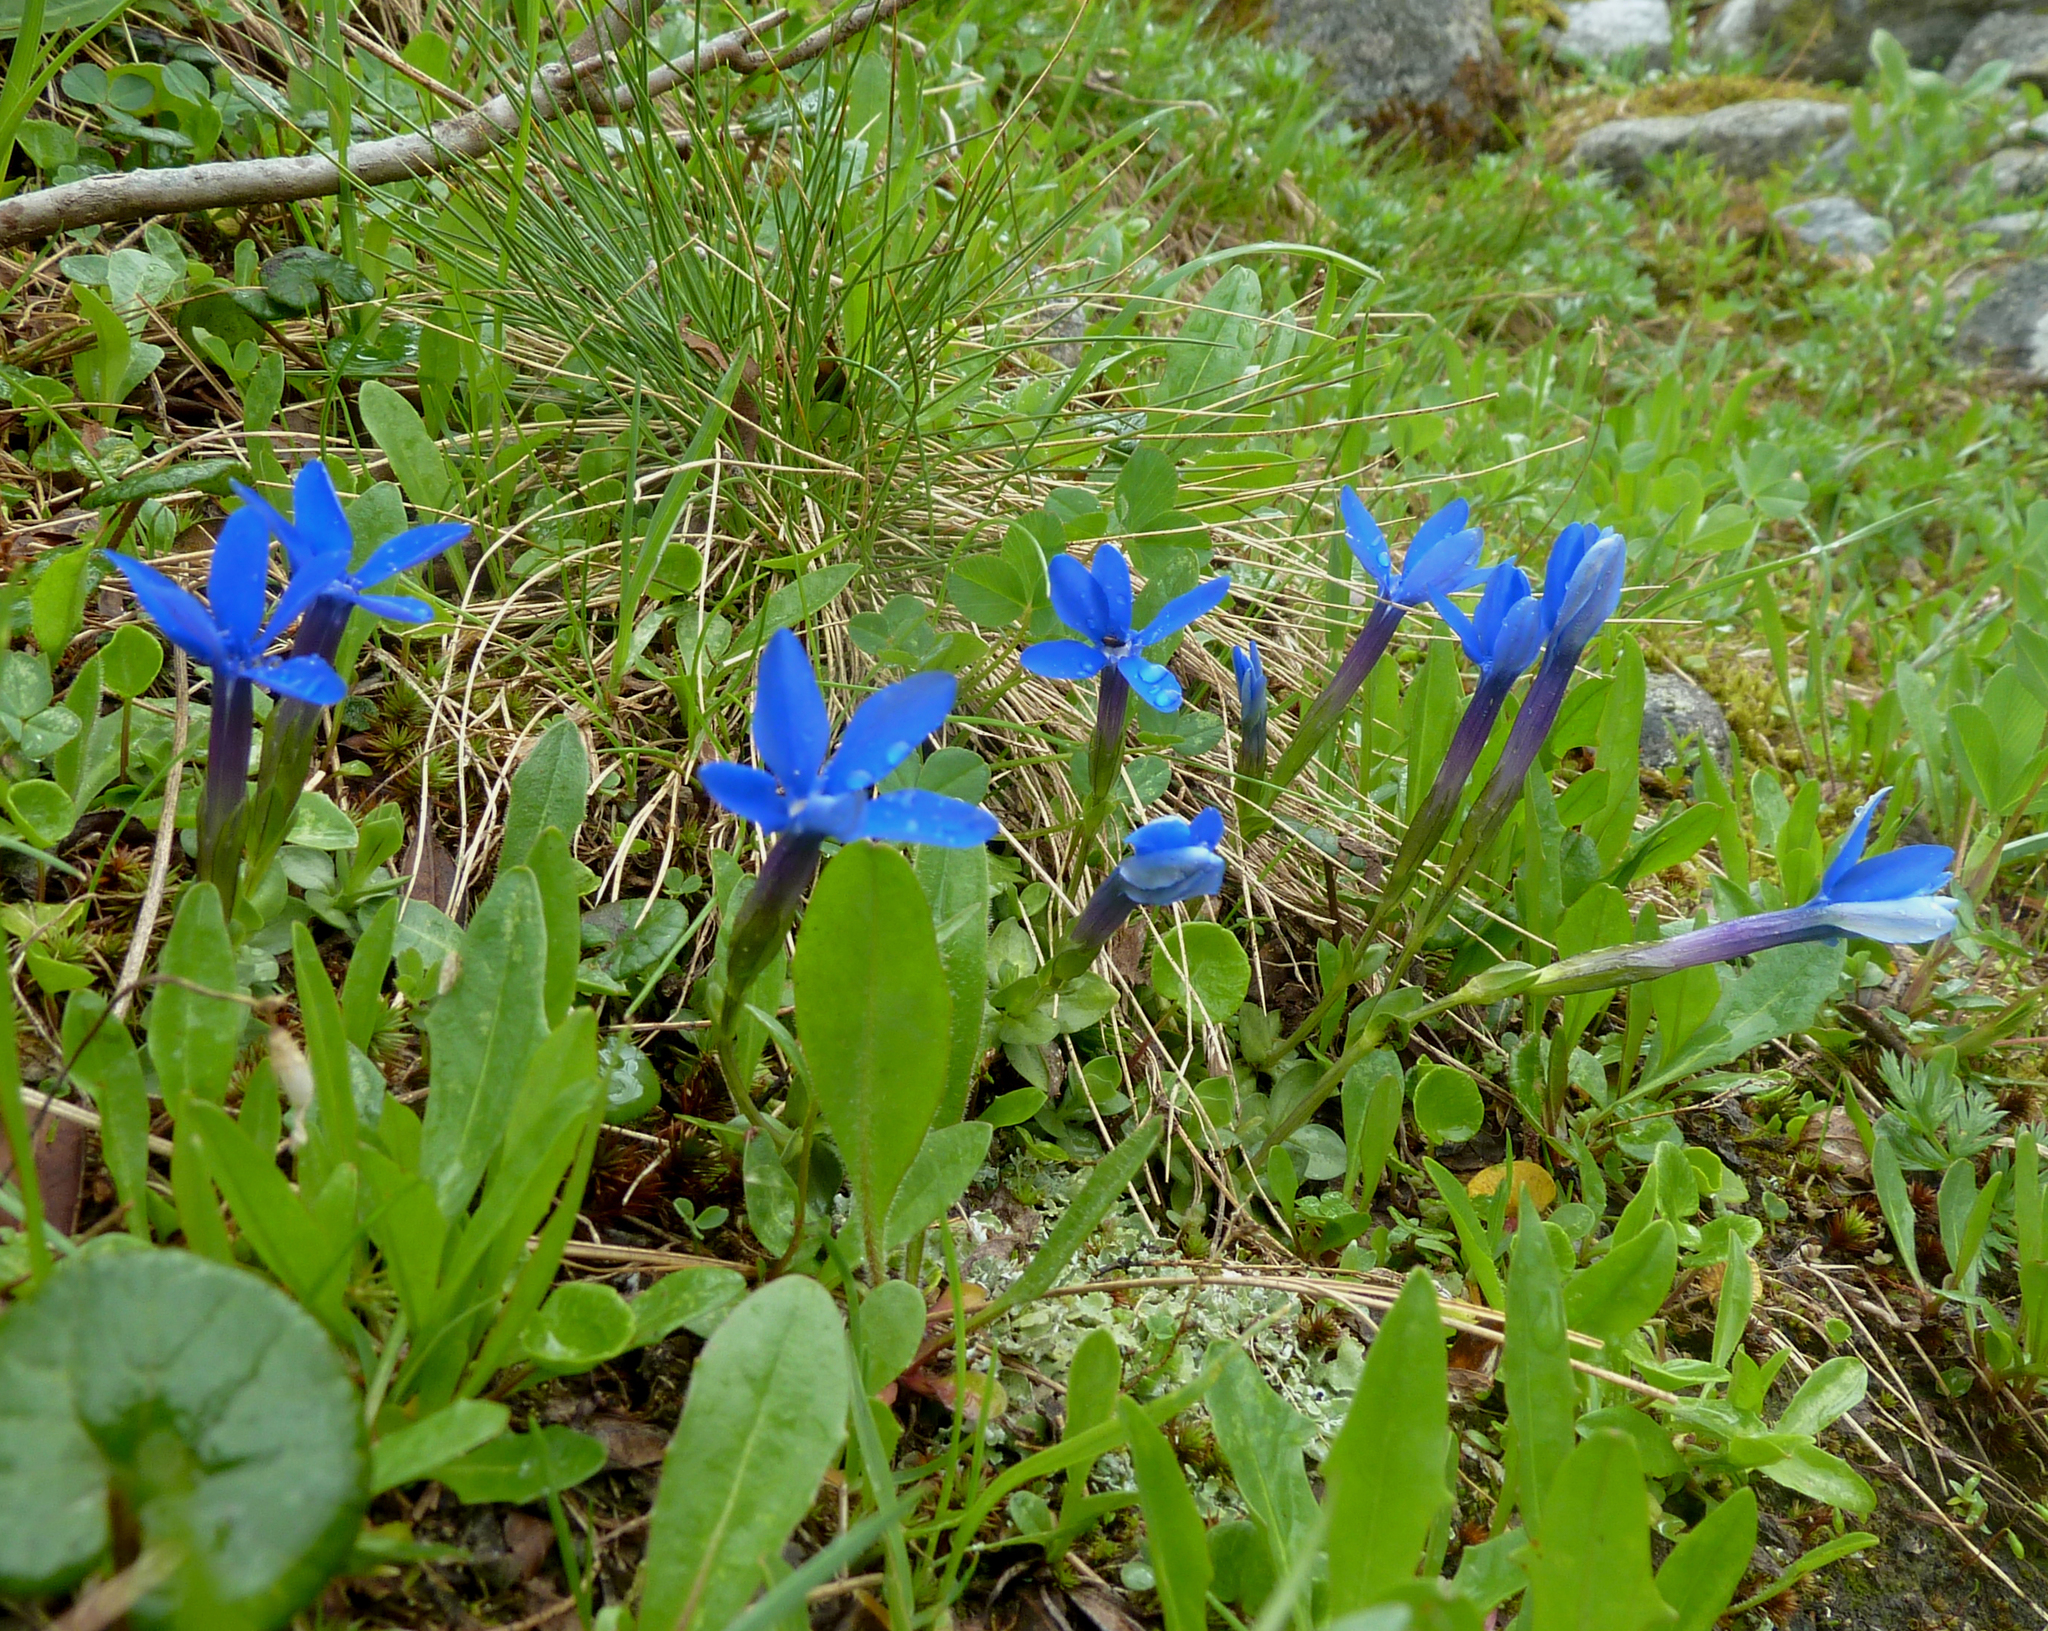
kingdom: Plantae
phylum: Tracheophyta
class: Magnoliopsida
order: Gentianales
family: Gentianaceae
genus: Gentiana
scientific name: Gentiana brachyphylla
